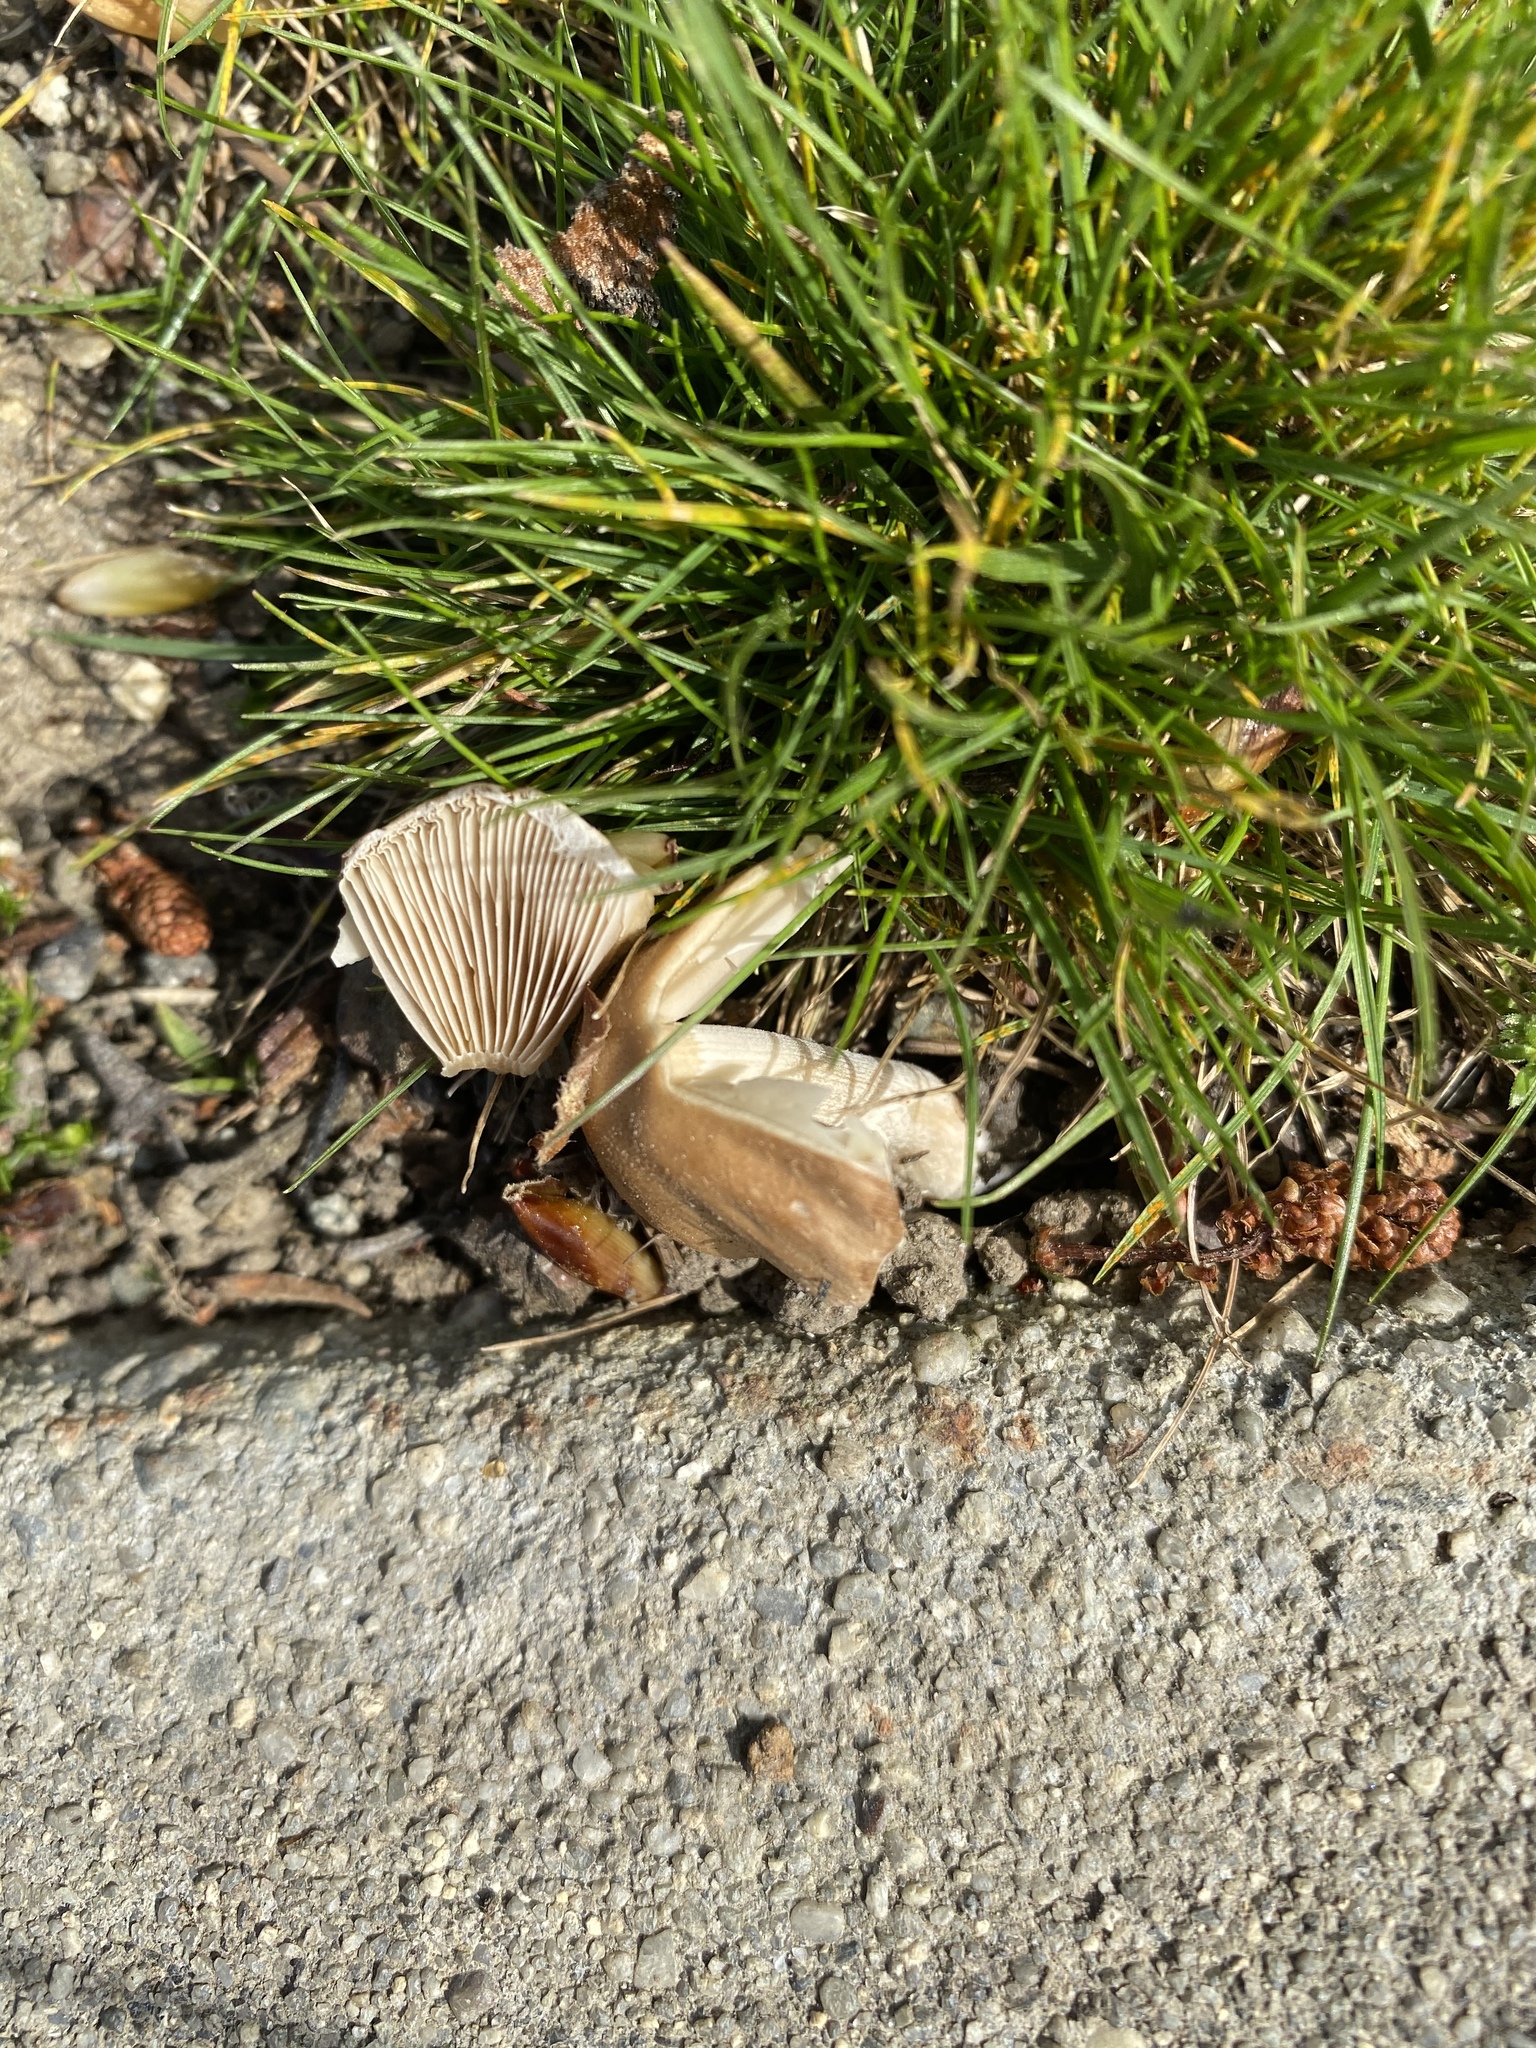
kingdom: Fungi
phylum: Basidiomycota
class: Agaricomycetes
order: Agaricales
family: Psathyrellaceae
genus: Candolleomyces
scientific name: Candolleomyces candolleanus
